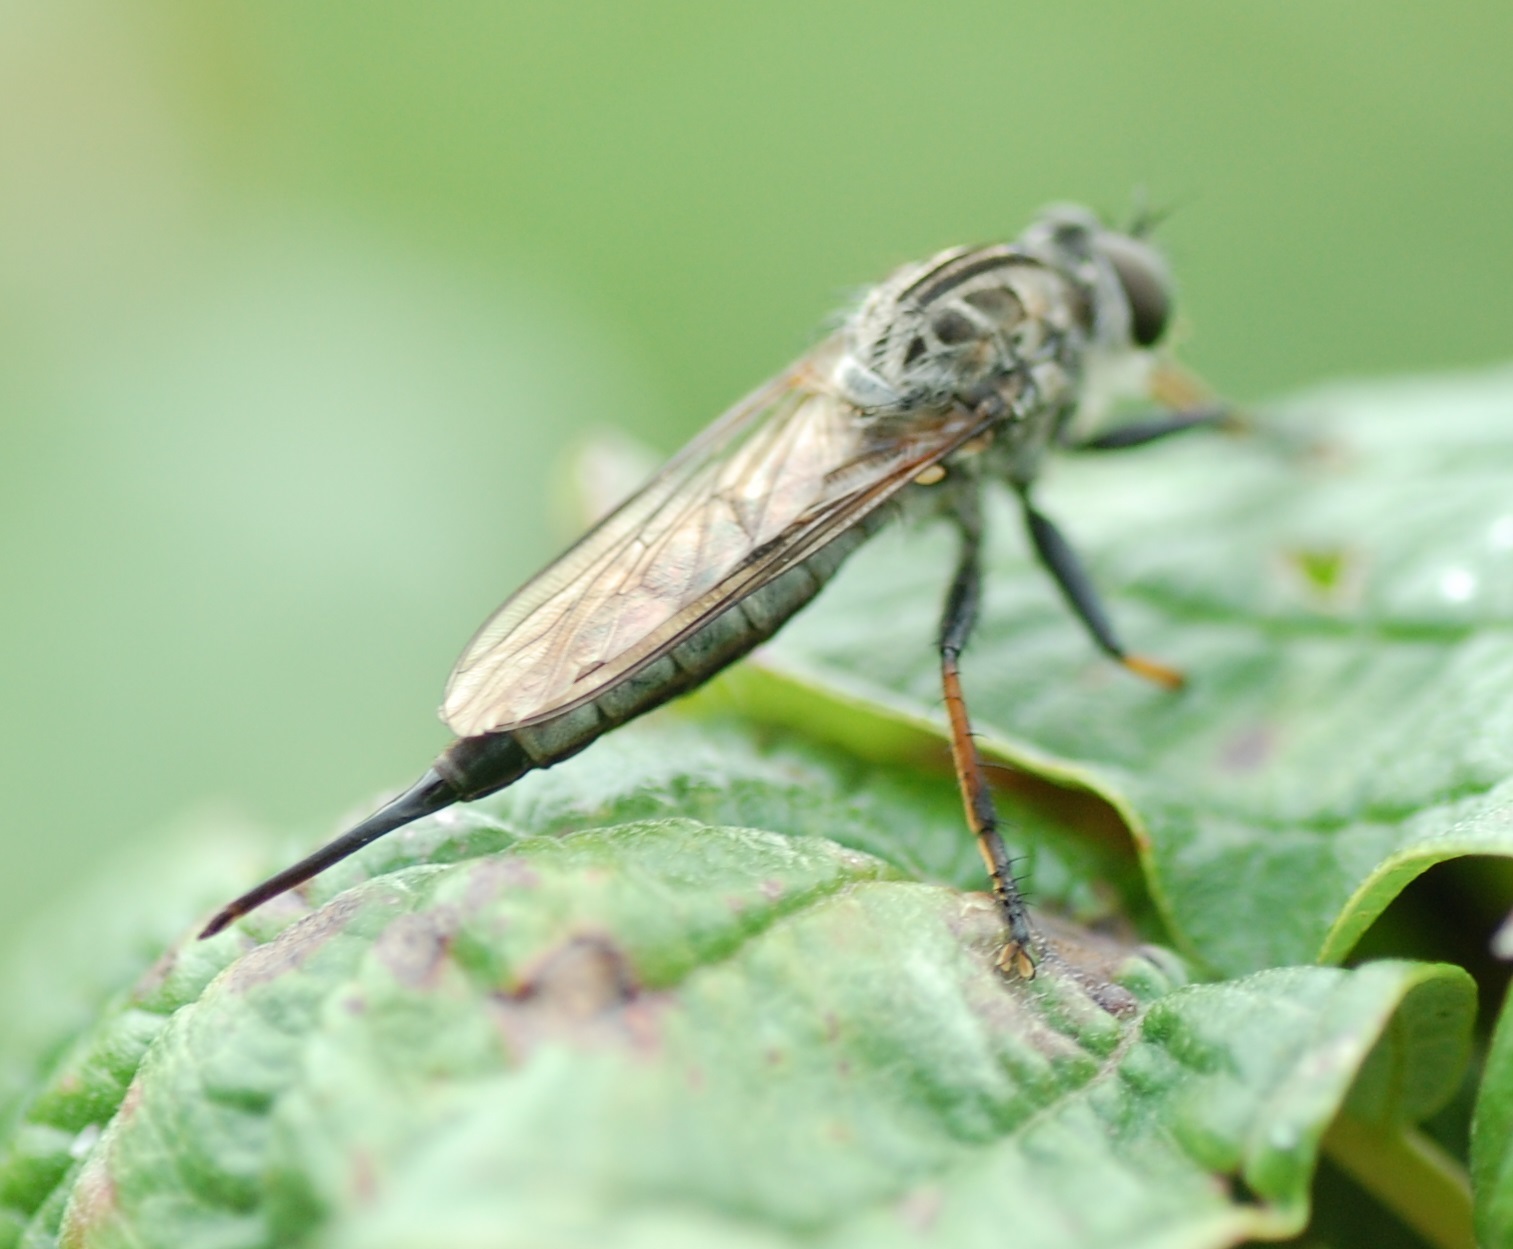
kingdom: Animalia
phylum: Arthropoda
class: Insecta
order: Diptera
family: Asilidae
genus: Efferia
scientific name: Efferia aestuans
